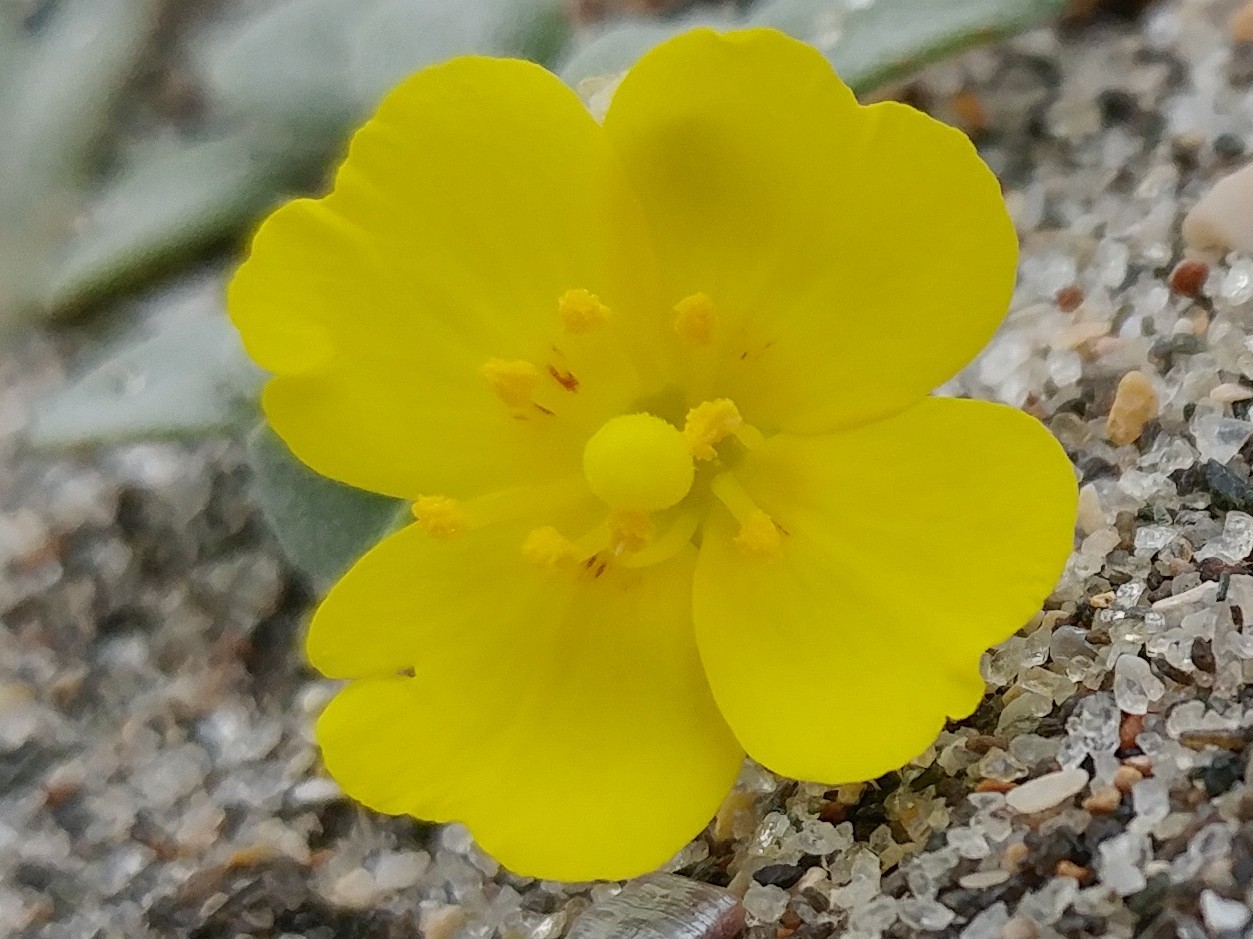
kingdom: Plantae
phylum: Tracheophyta
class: Magnoliopsida
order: Myrtales
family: Onagraceae
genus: Camissoniopsis
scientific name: Camissoniopsis cheiranthifolia
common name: Beach suncup
